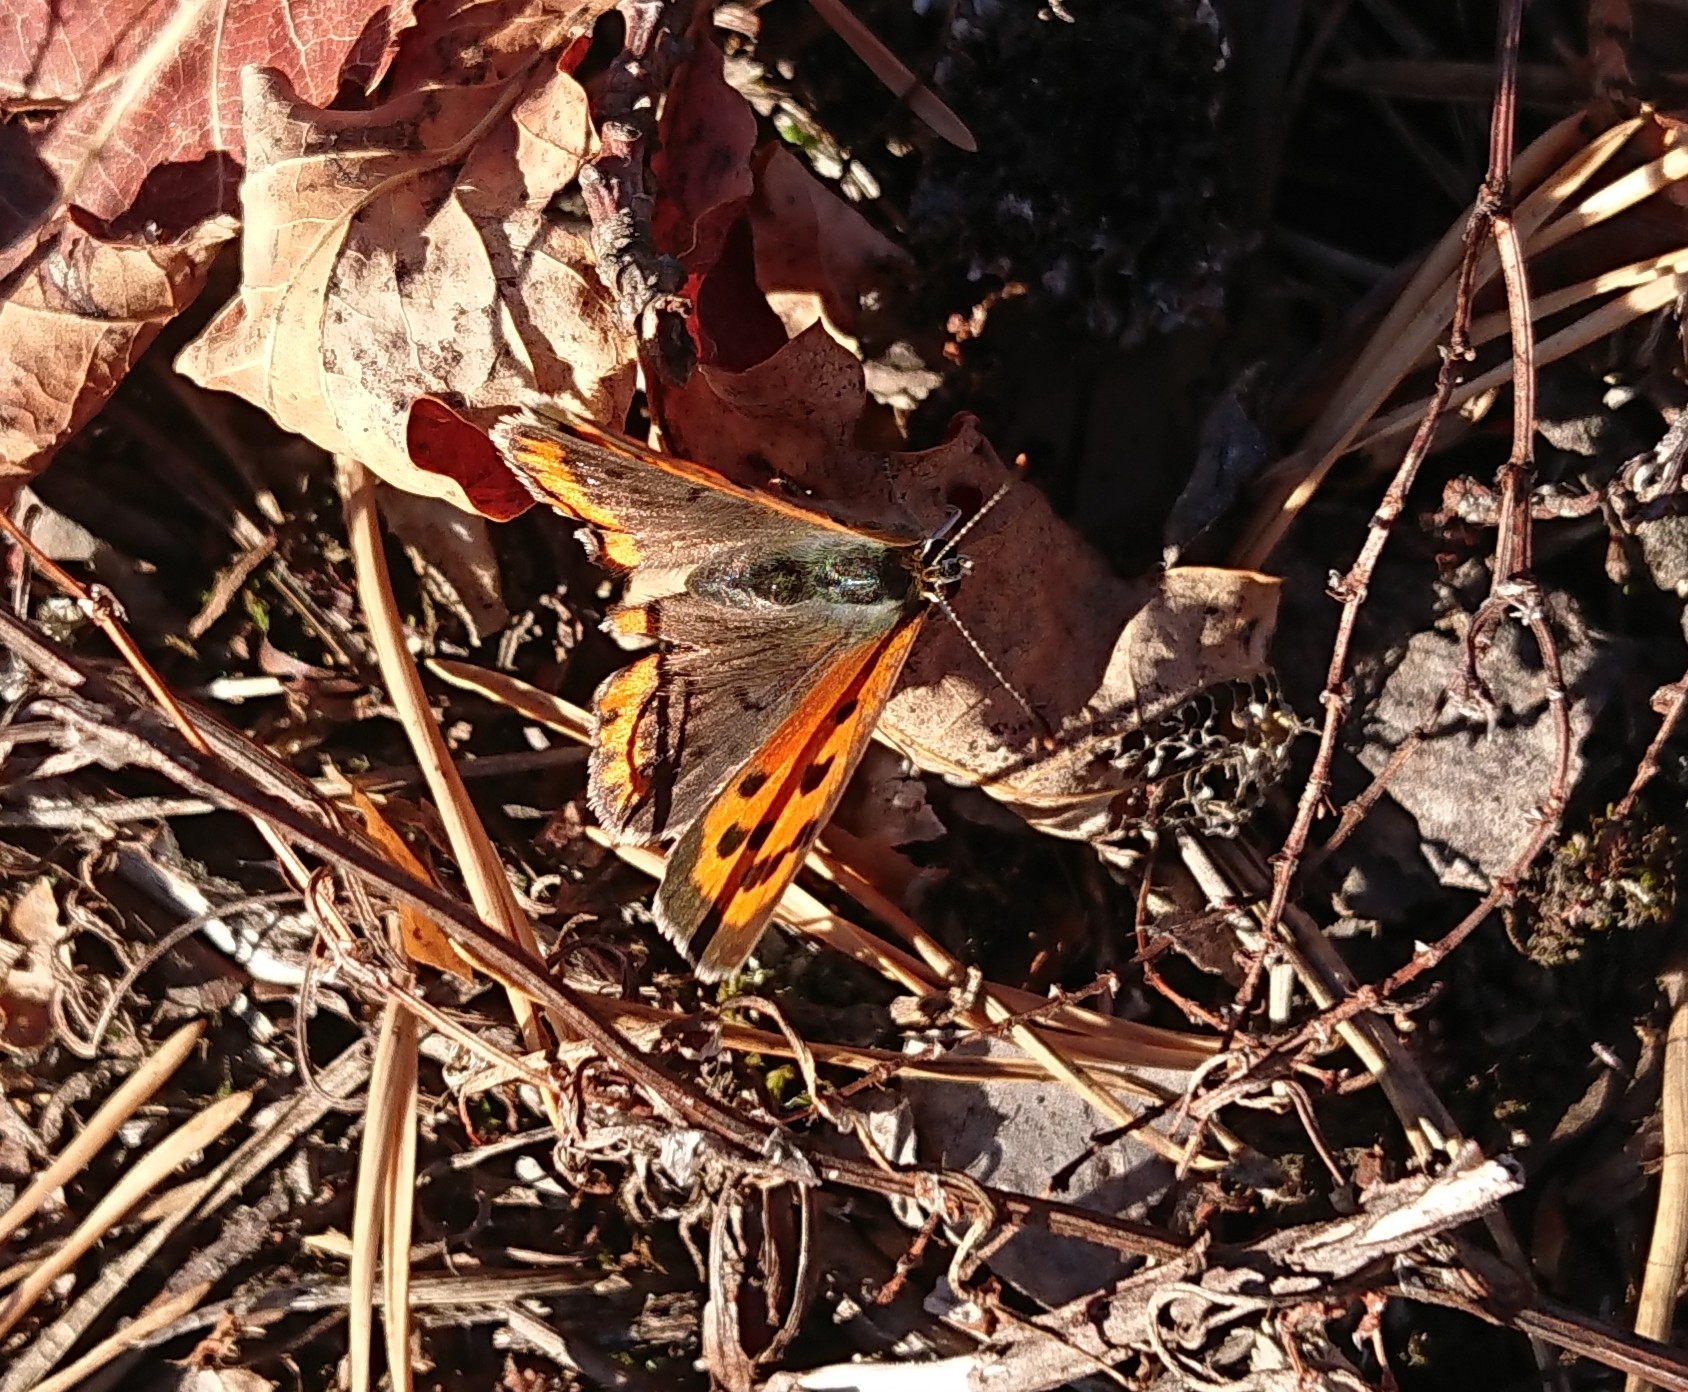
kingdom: Animalia
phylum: Arthropoda
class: Insecta
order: Lepidoptera
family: Lycaenidae
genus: Lycaena
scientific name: Lycaena phlaeas
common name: Small copper
